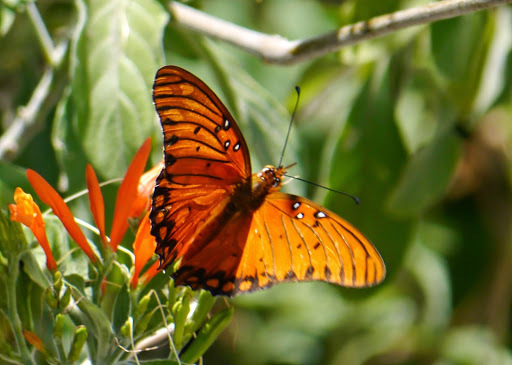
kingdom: Animalia
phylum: Arthropoda
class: Insecta
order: Lepidoptera
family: Nymphalidae
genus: Dione
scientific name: Dione vanillae
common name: Gulf fritillary
